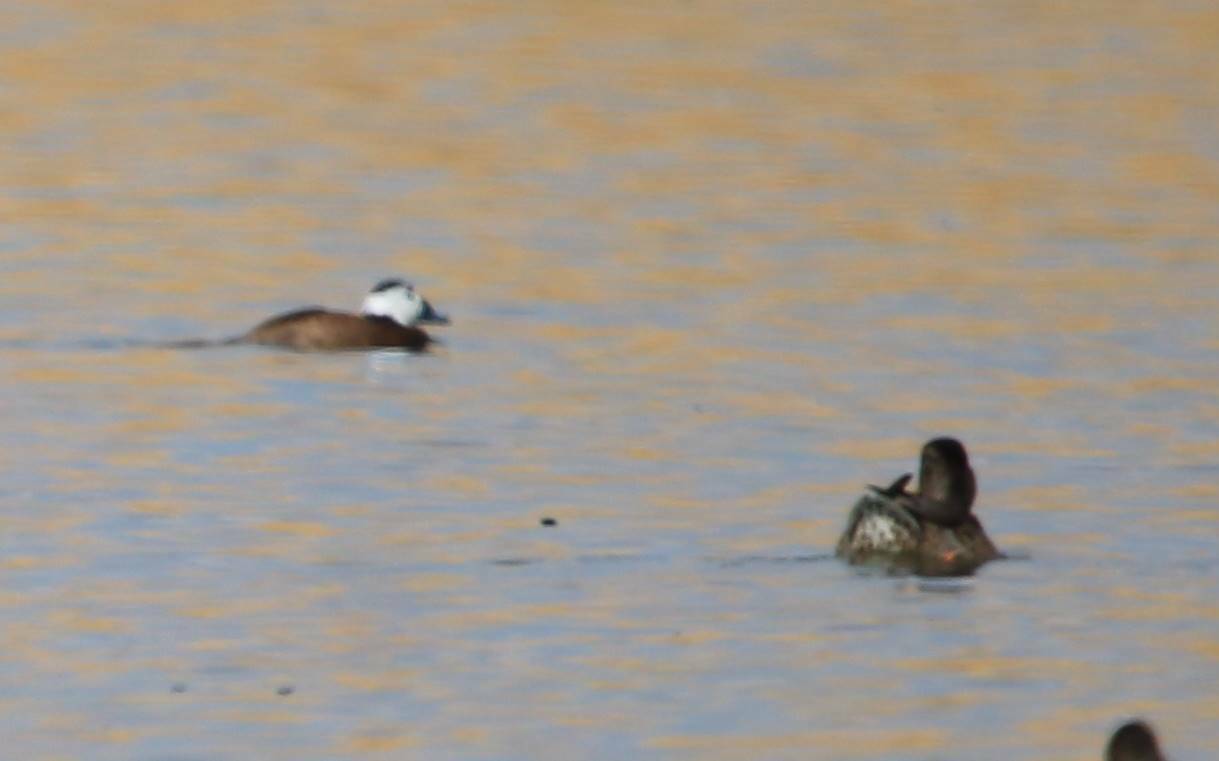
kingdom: Animalia
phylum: Chordata
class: Aves
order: Anseriformes
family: Anatidae
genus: Oxyura
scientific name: Oxyura leucocephala
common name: White-headed duck
